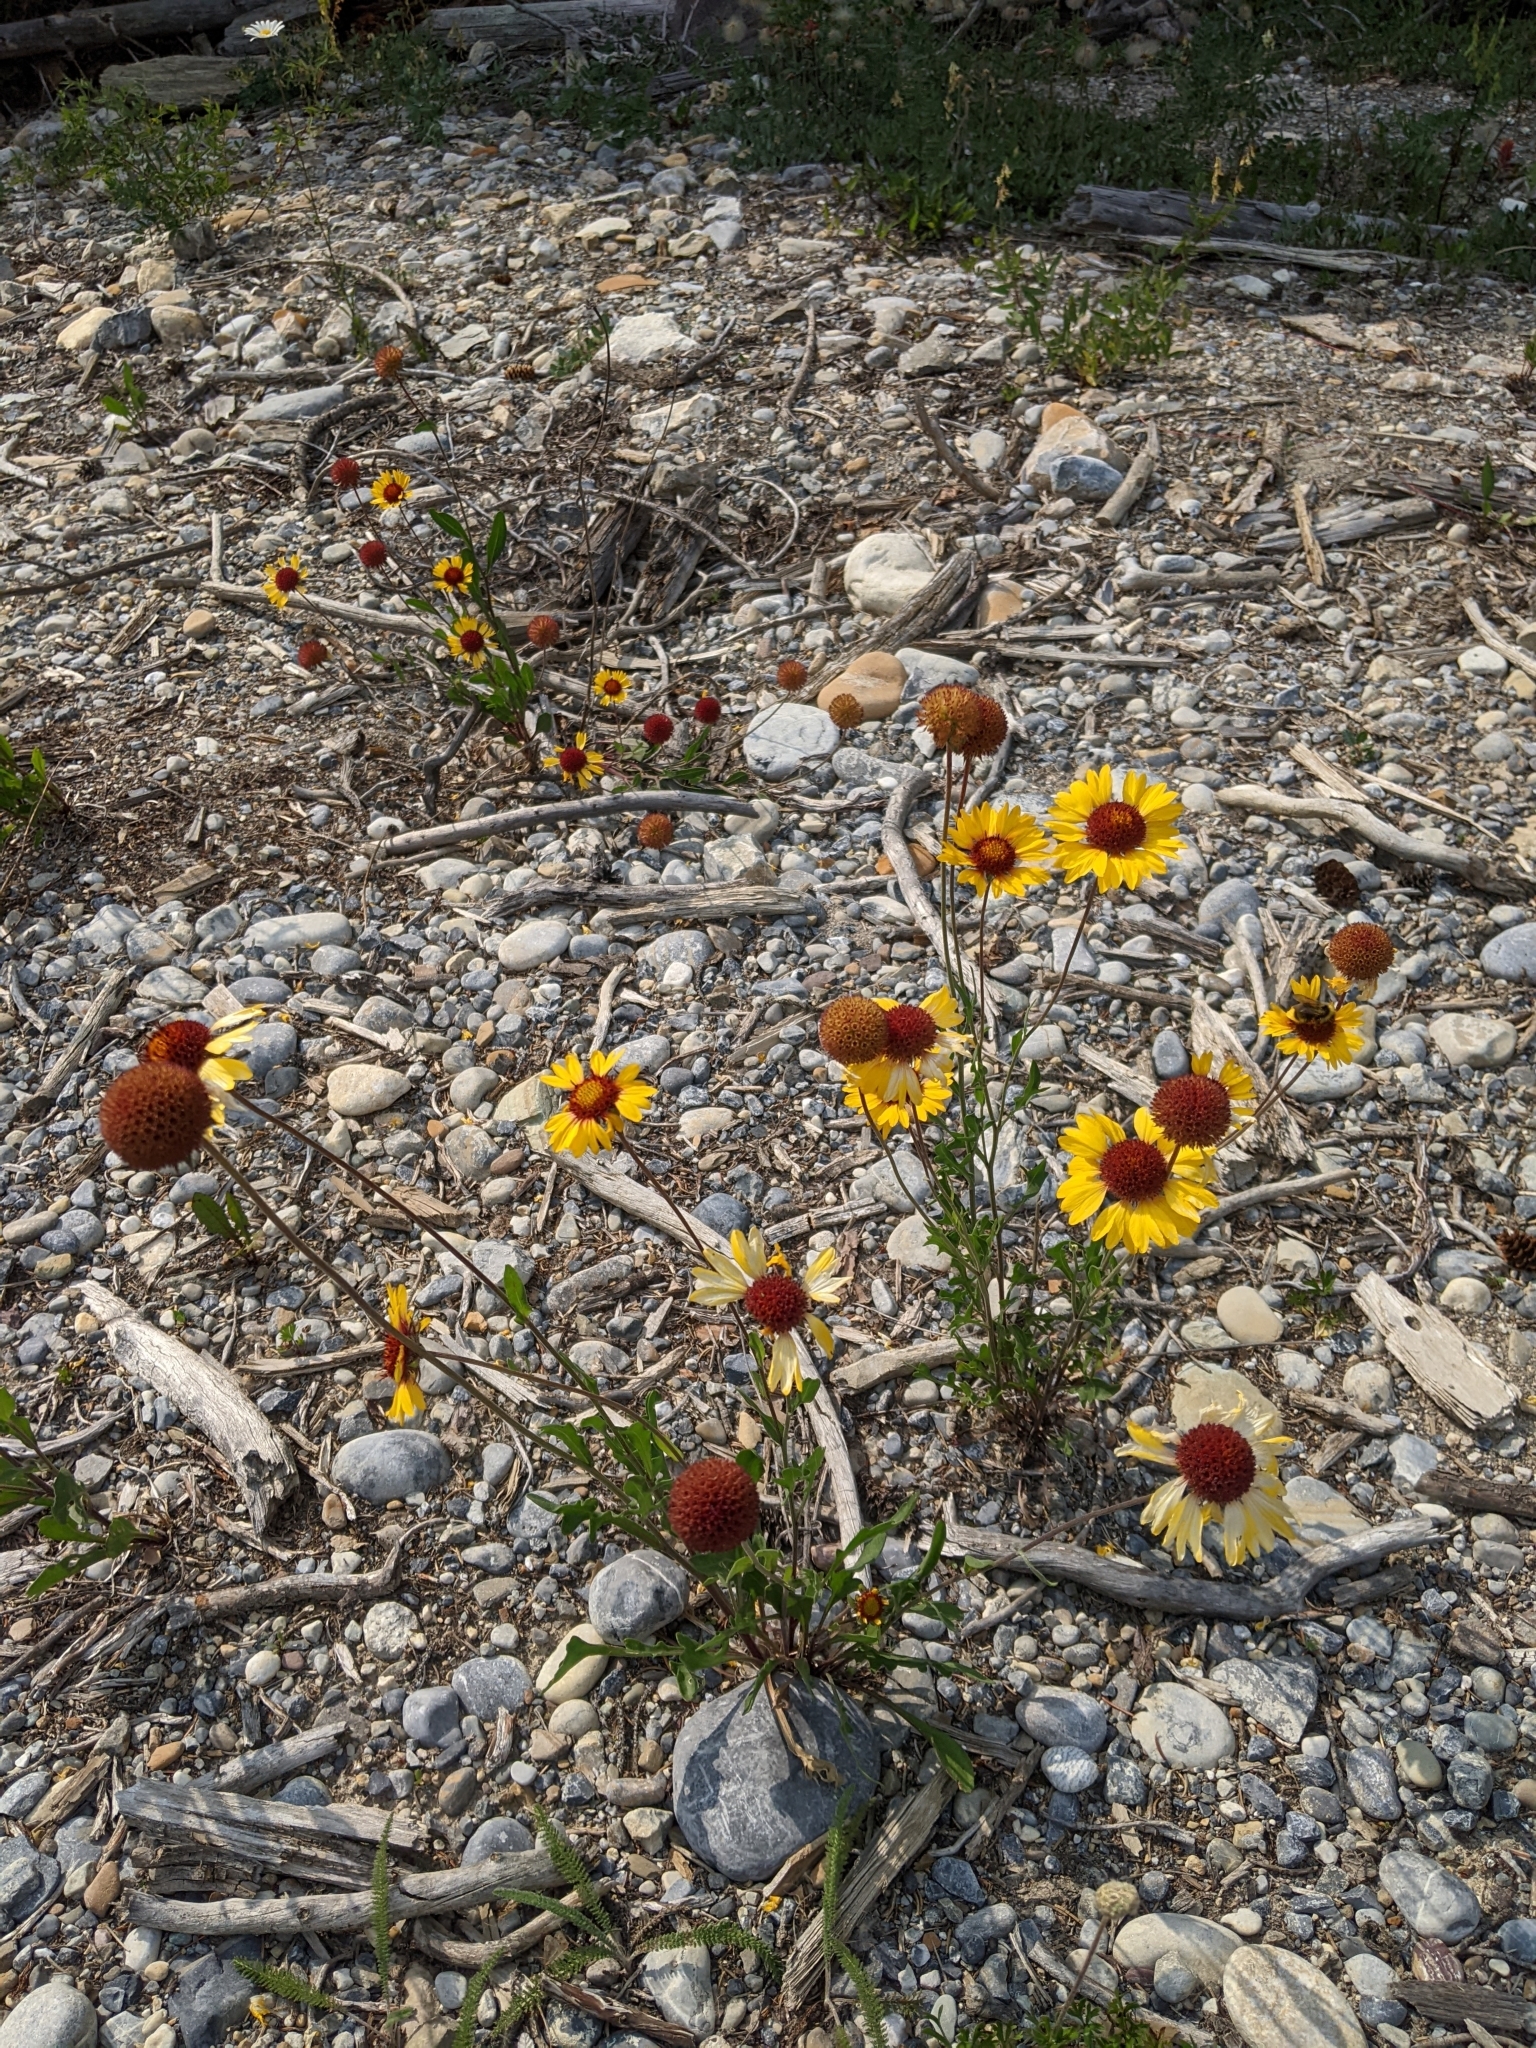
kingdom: Plantae
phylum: Tracheophyta
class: Magnoliopsida
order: Asterales
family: Asteraceae
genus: Gaillardia
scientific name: Gaillardia aristata
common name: Blanket-flower
